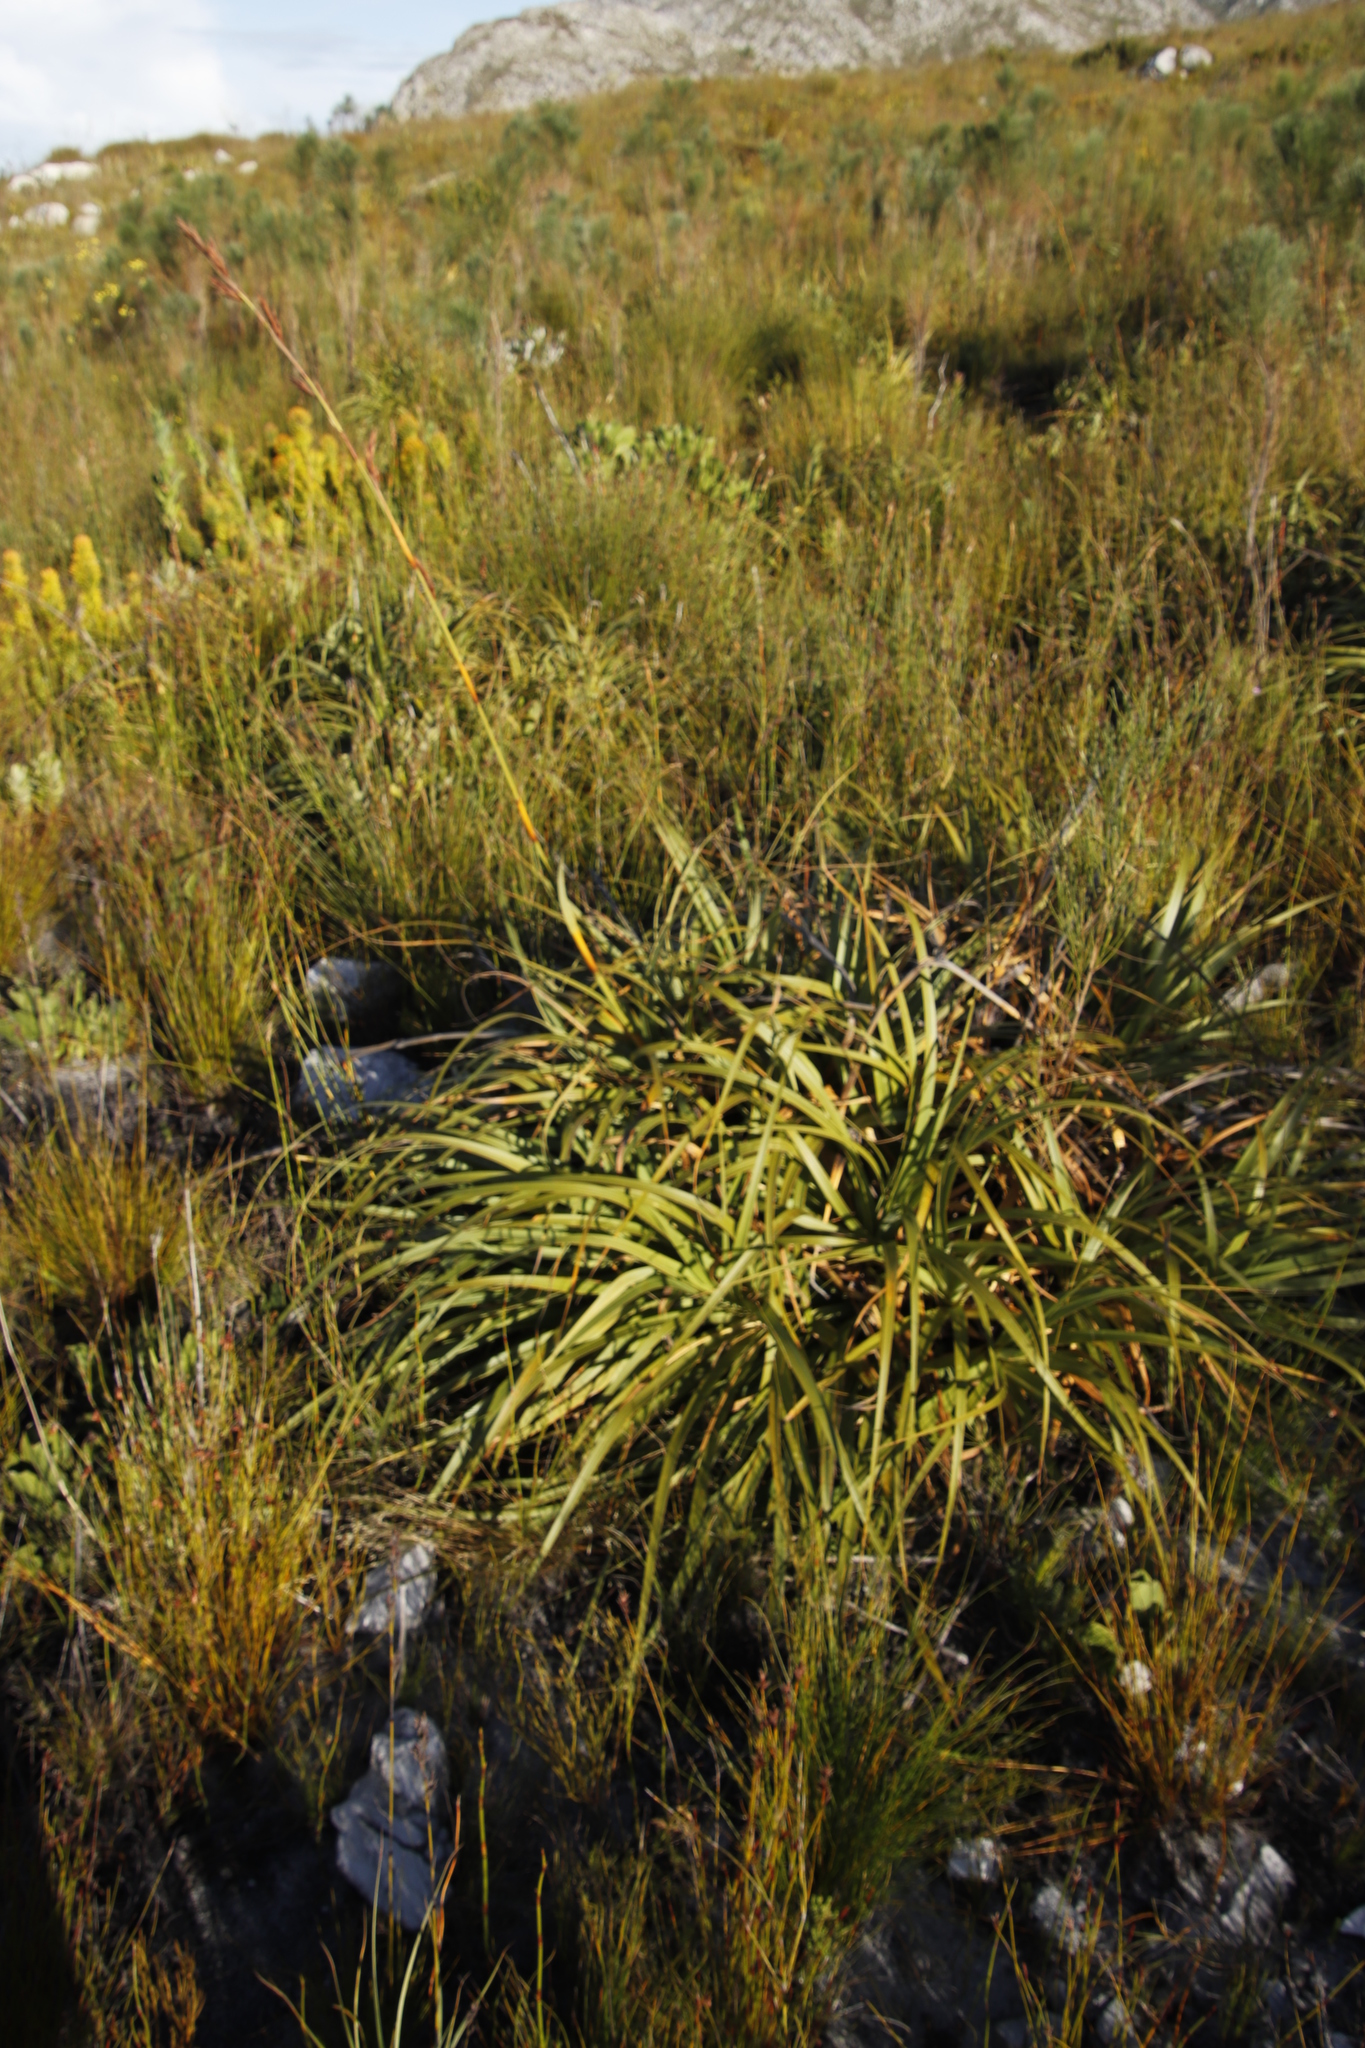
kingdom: Plantae
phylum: Tracheophyta
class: Liliopsida
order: Poales
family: Cyperaceae
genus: Tetraria
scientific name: Tetraria thermalis
